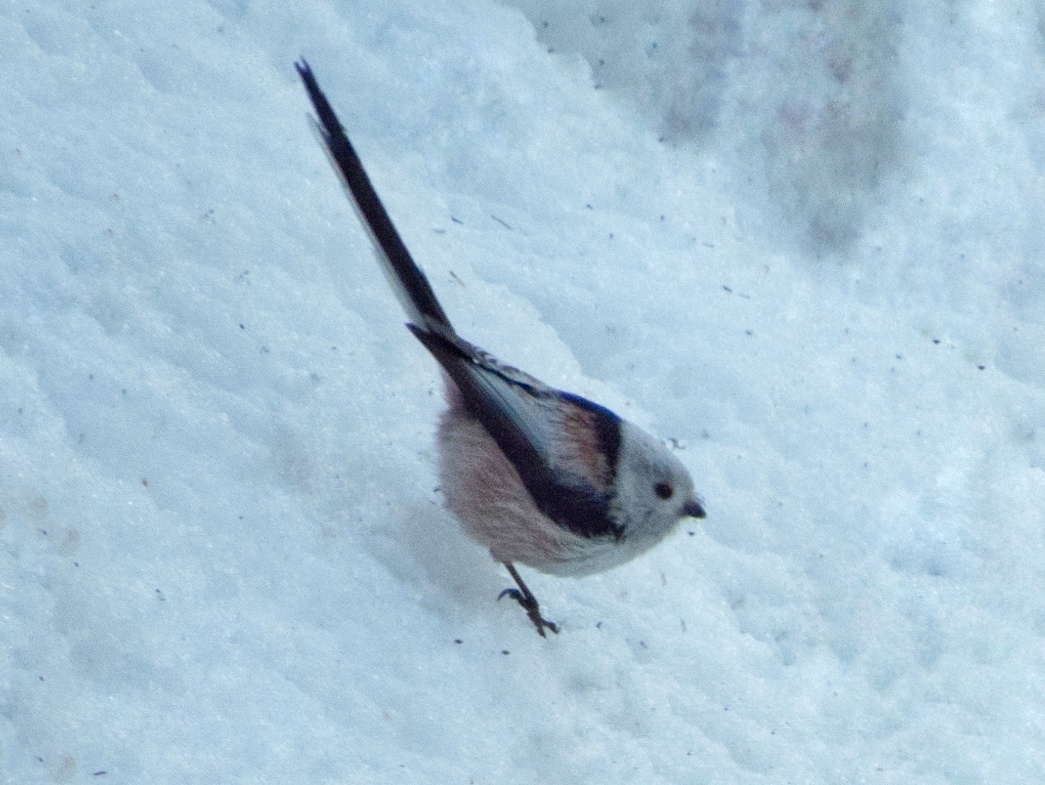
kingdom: Animalia
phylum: Chordata
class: Aves
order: Passeriformes
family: Aegithalidae
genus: Aegithalos
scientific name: Aegithalos caudatus
